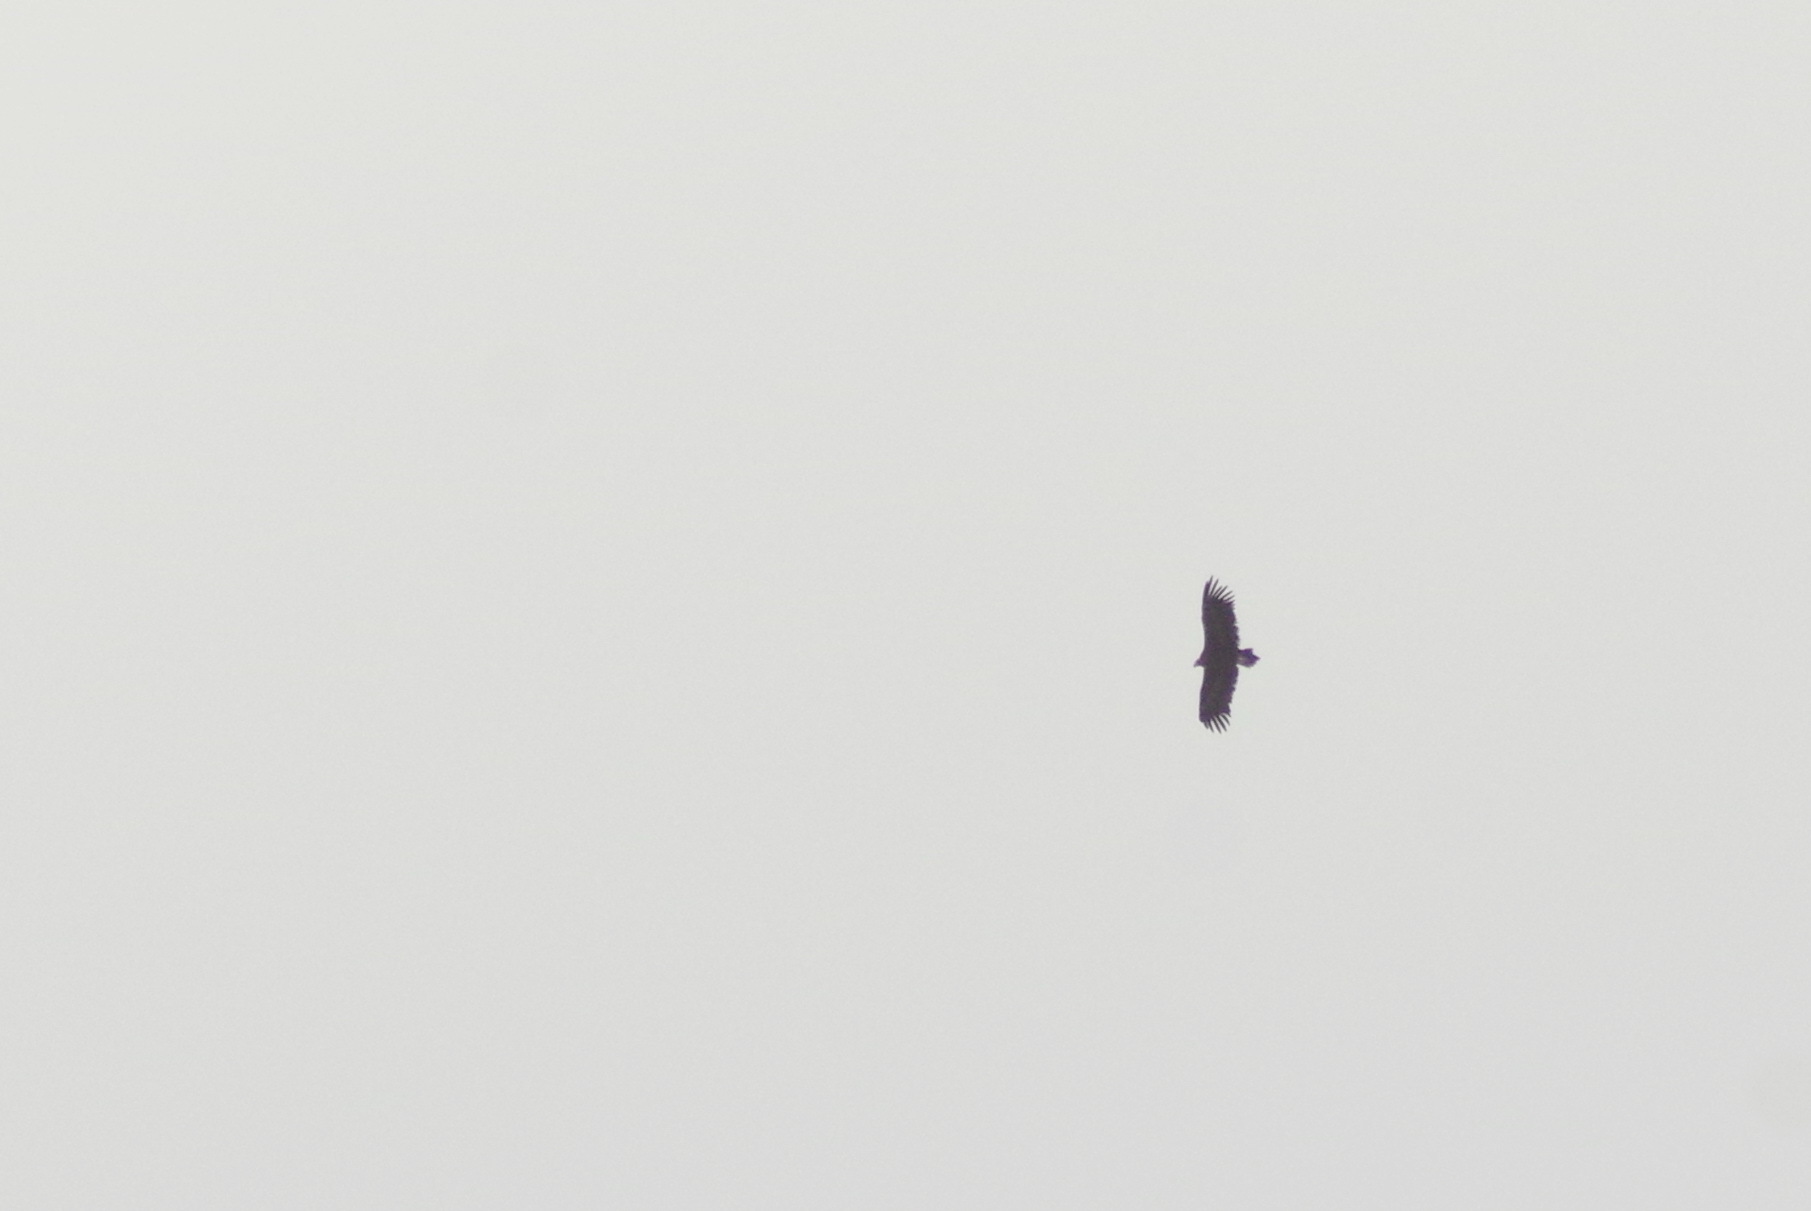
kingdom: Animalia
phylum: Chordata
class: Aves
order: Accipitriformes
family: Accipitridae
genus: Aegypius
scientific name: Aegypius monachus
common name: Cinereous vulture
